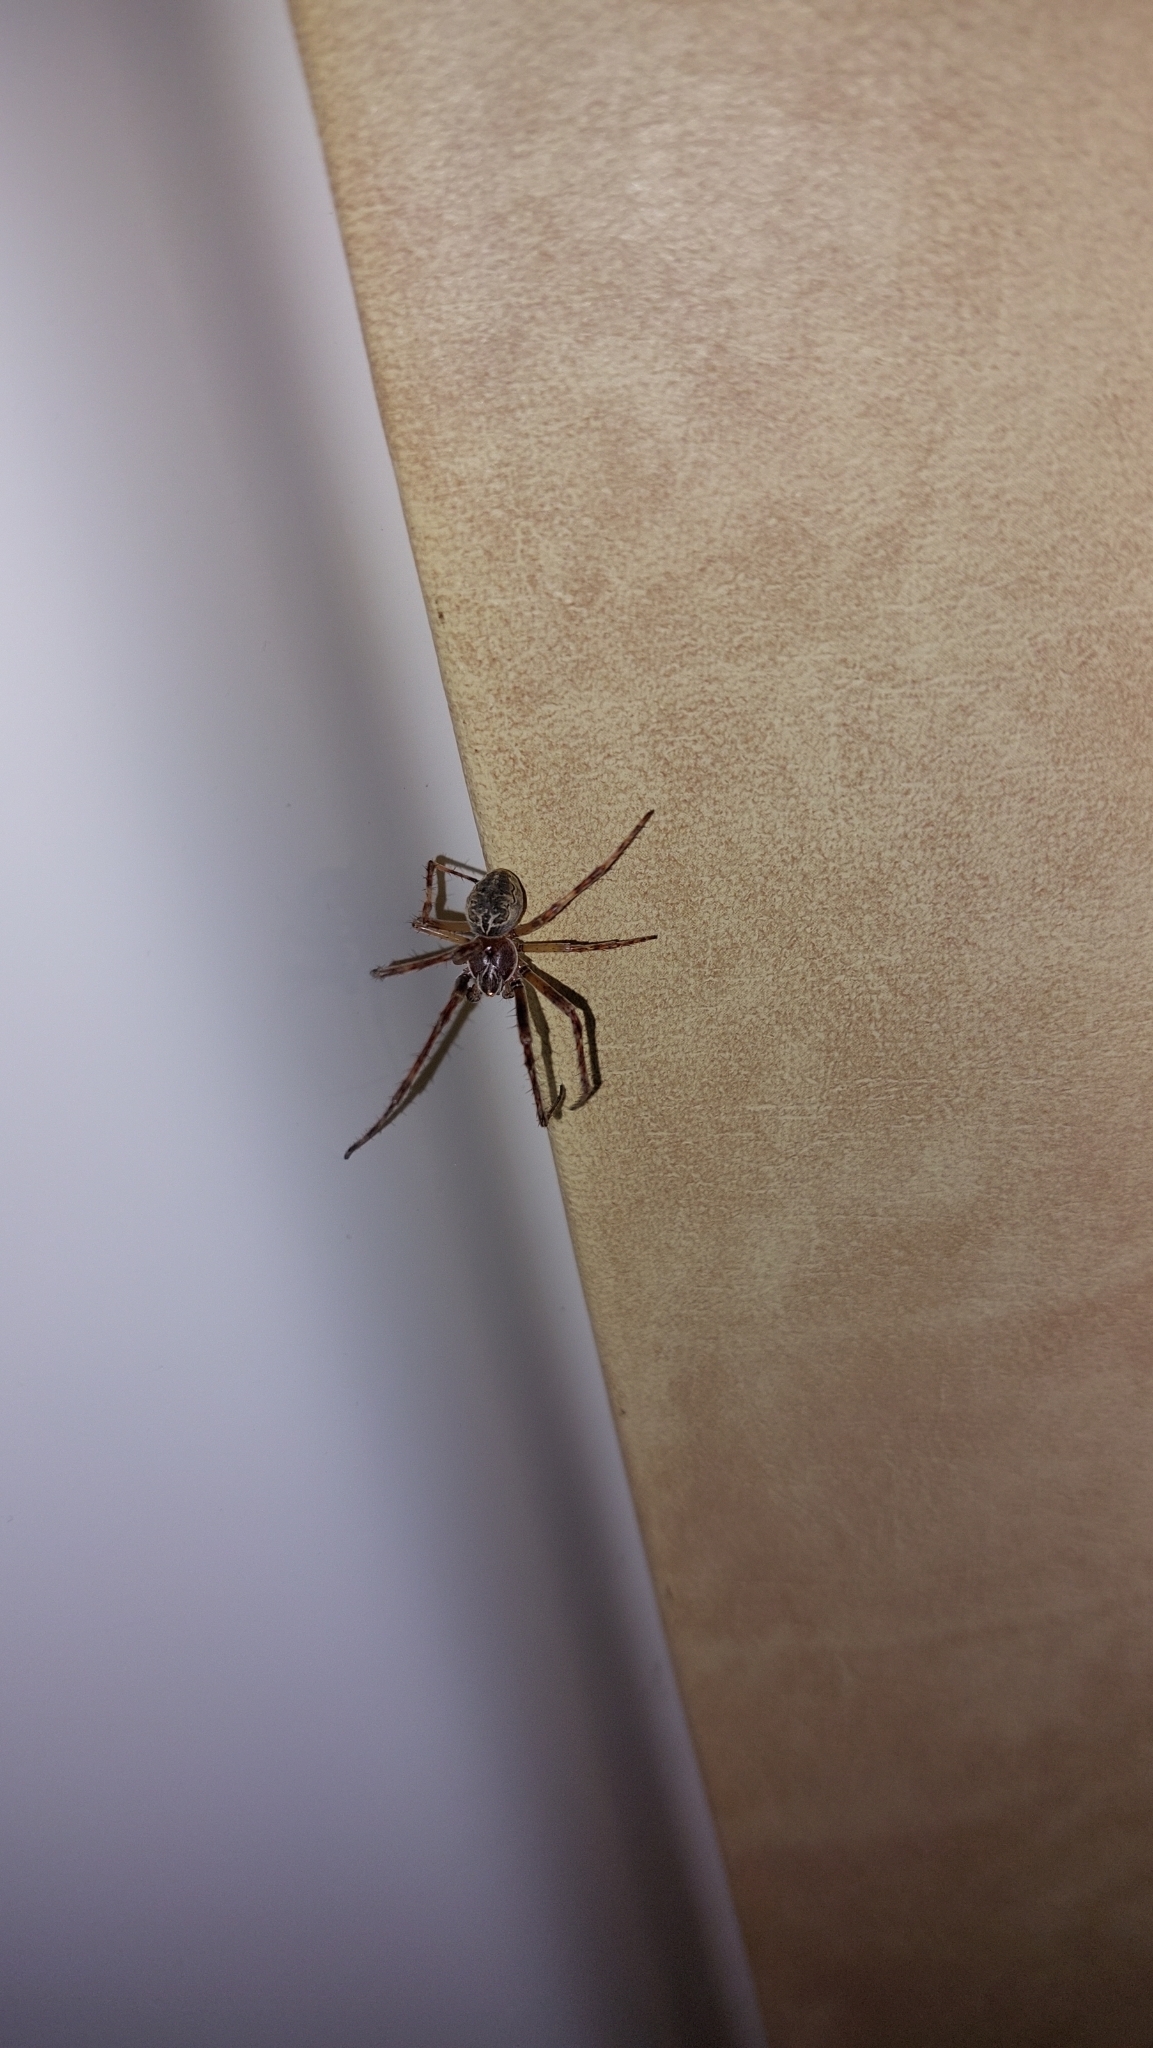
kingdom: Animalia
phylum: Arthropoda
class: Arachnida
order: Araneae
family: Araneidae
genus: Larinioides
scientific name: Larinioides sclopetarius
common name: Bridge orbweaver
